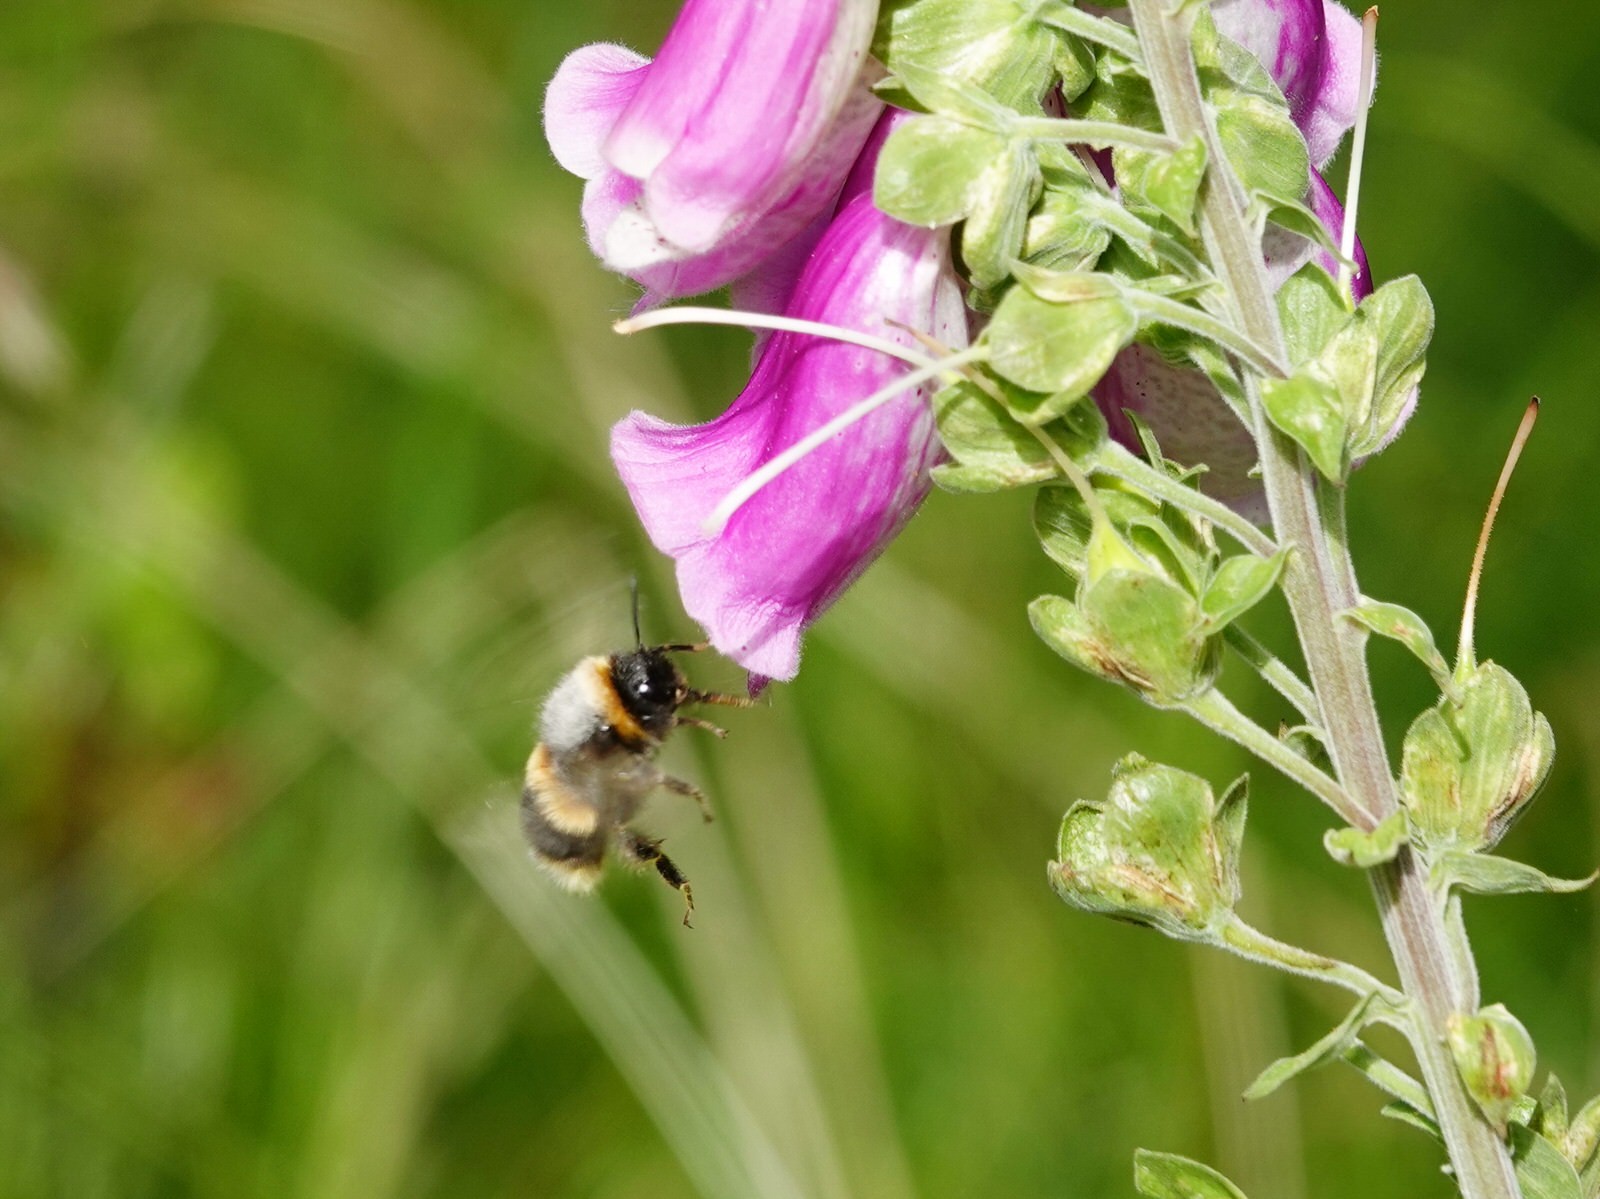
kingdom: Animalia
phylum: Arthropoda
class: Insecta
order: Hymenoptera
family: Apidae
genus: Bombus
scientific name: Bombus terrestris
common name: Buff-tailed bumblebee
